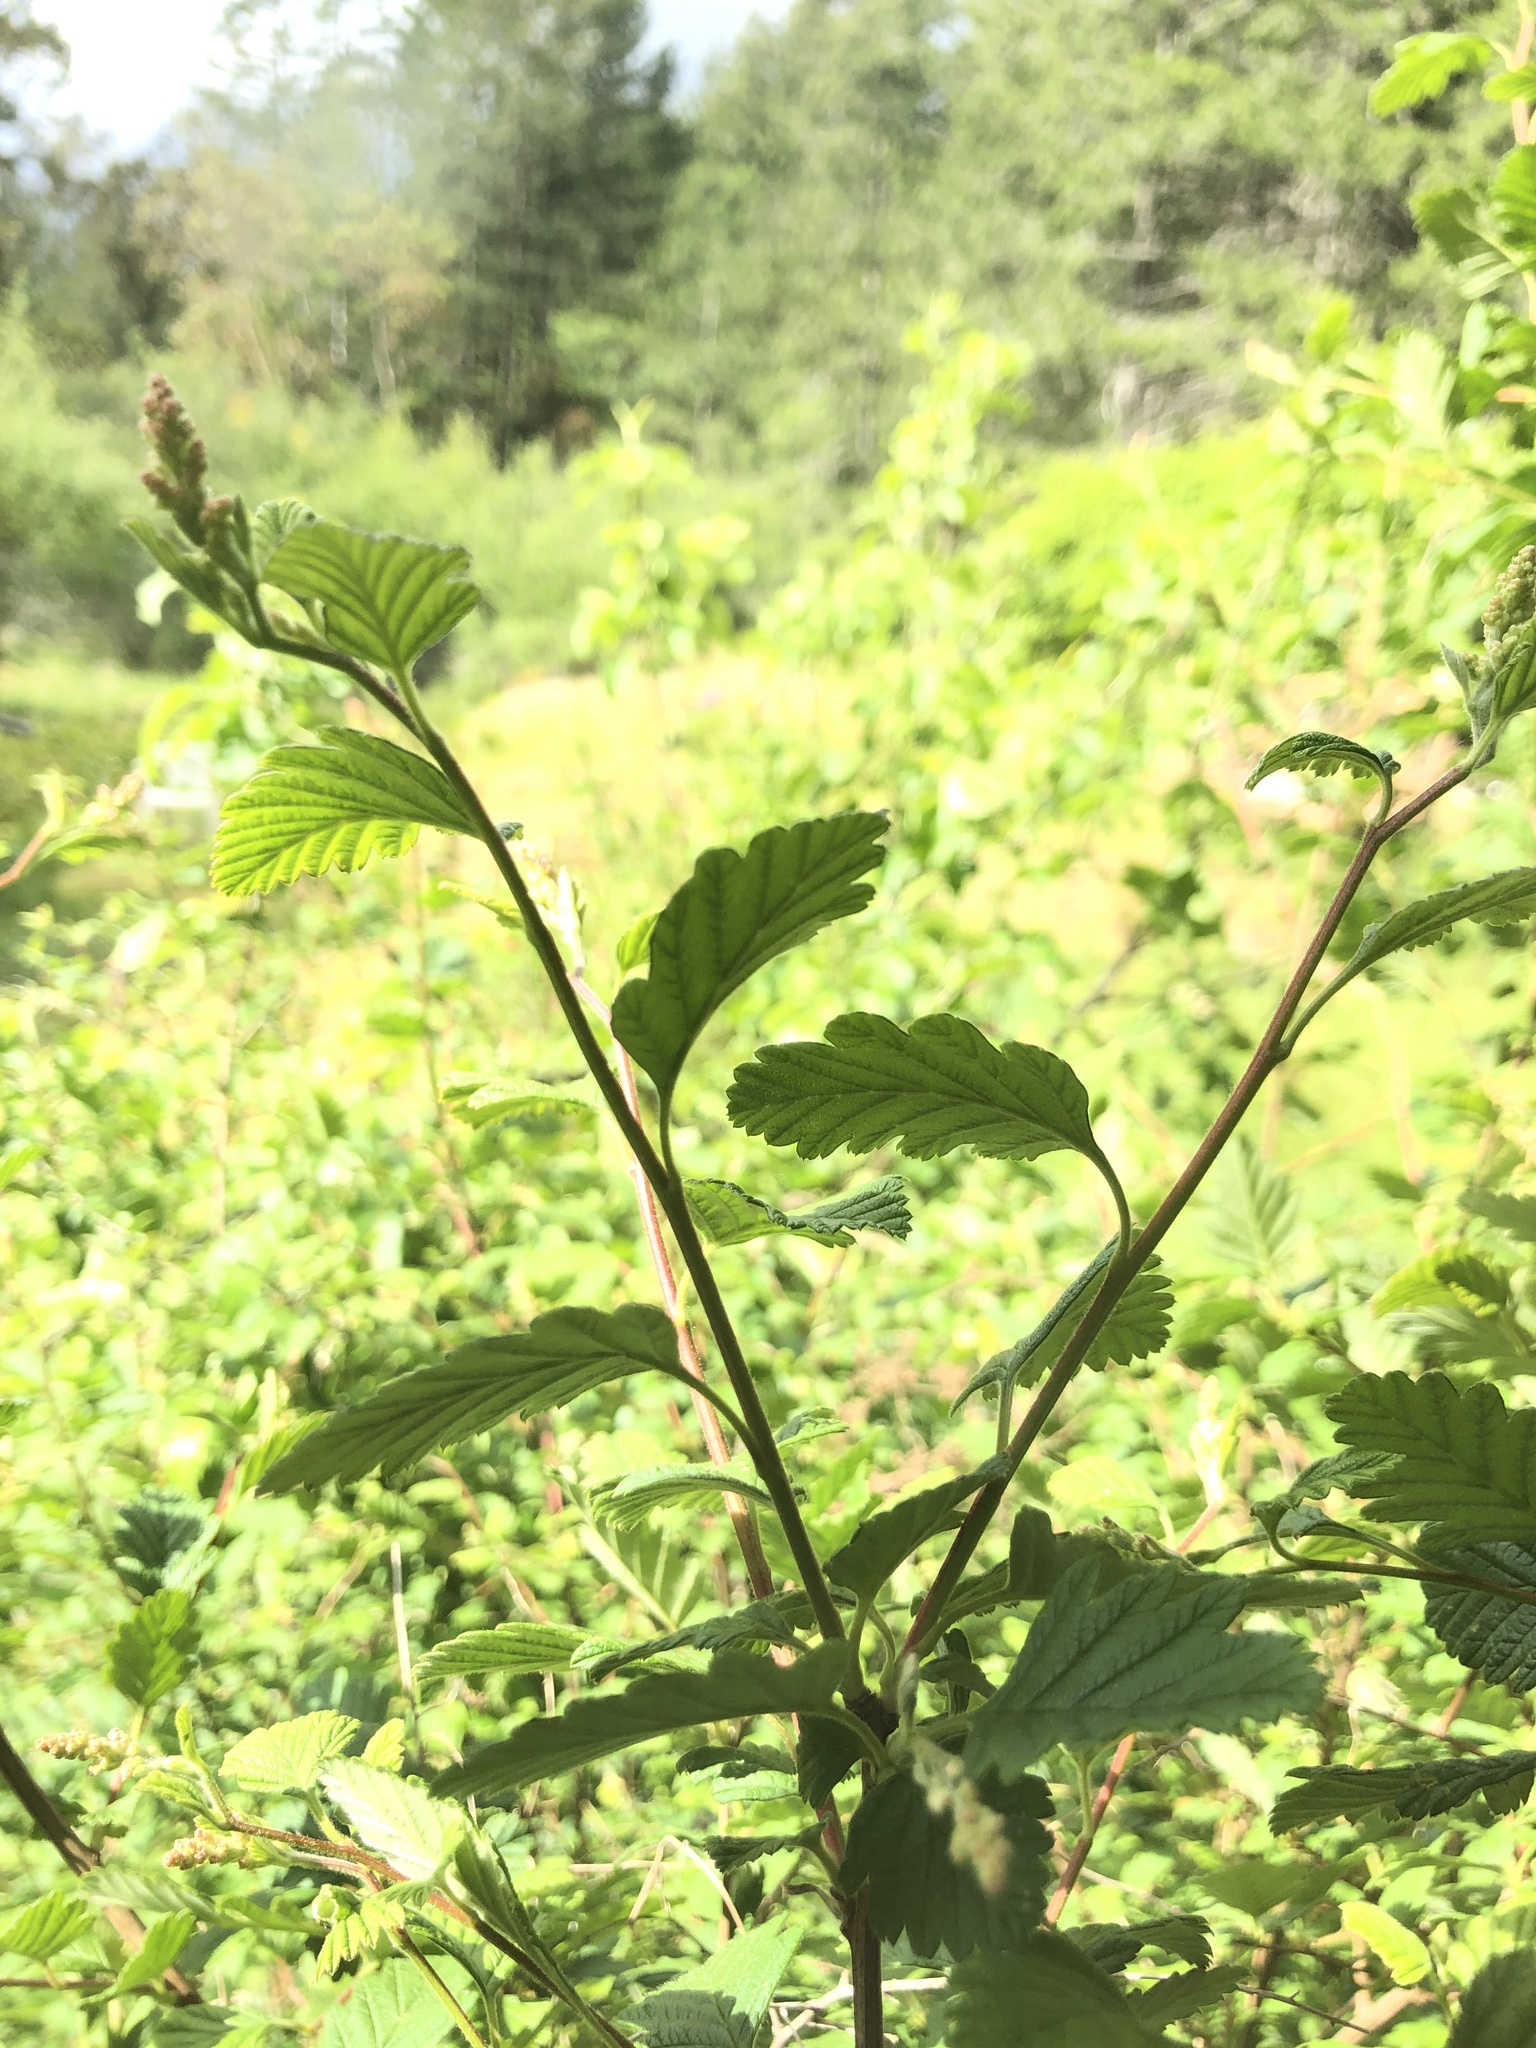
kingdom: Plantae
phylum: Tracheophyta
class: Magnoliopsida
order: Rosales
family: Rosaceae
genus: Holodiscus
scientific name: Holodiscus discolor
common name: Oceanspray
